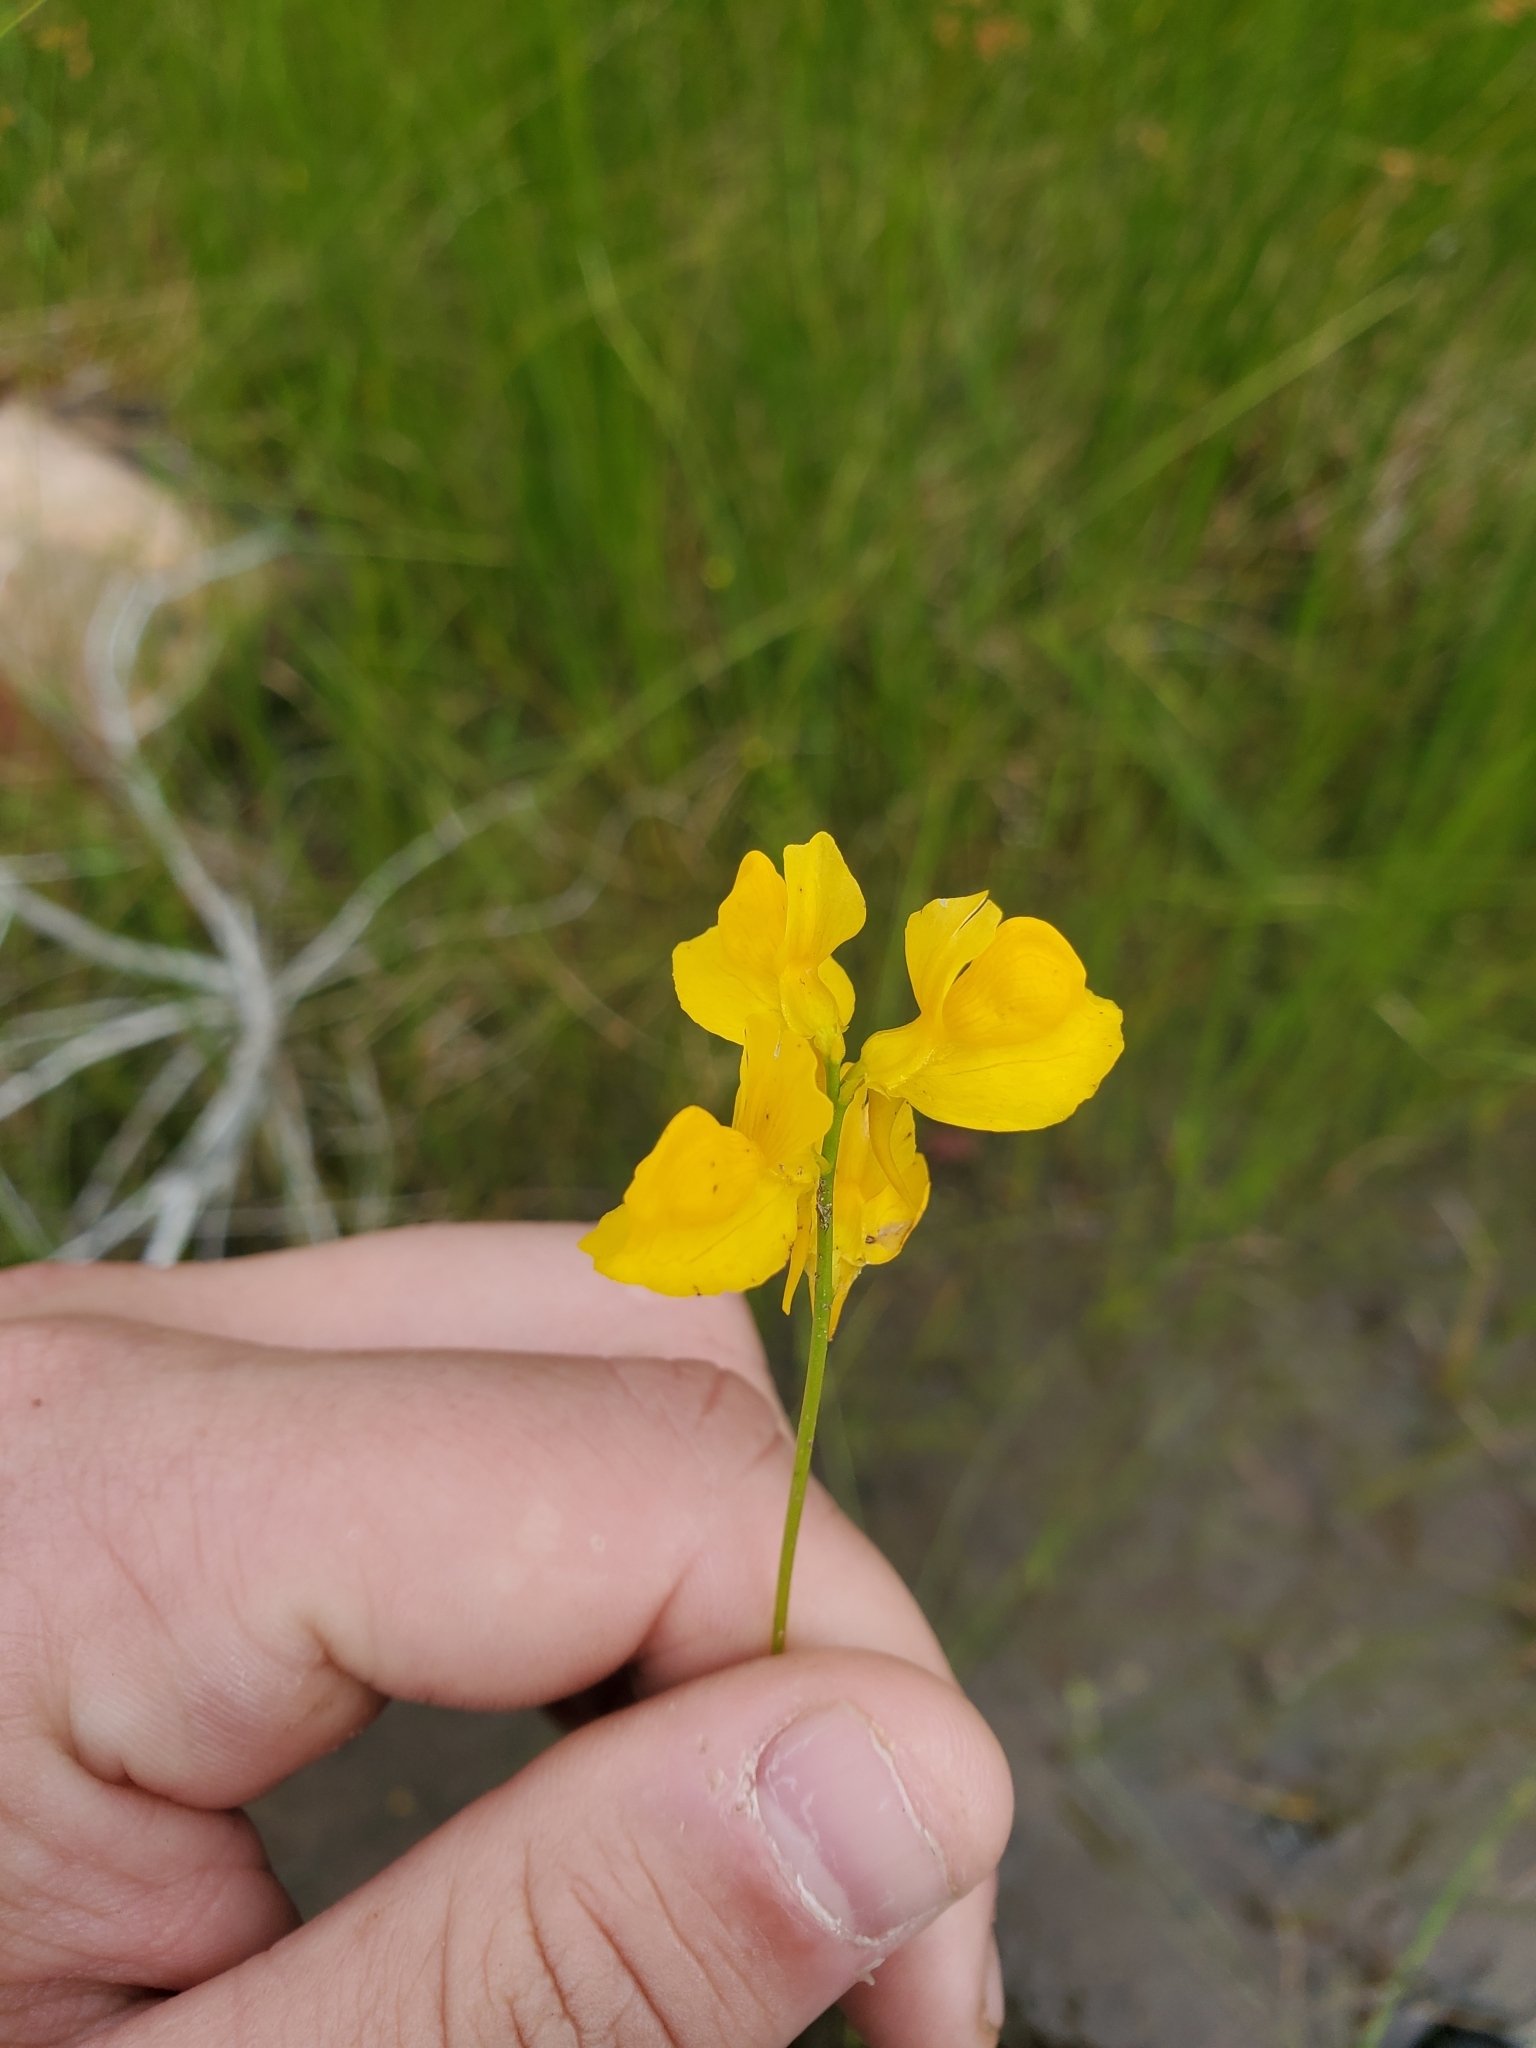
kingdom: Plantae
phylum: Tracheophyta
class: Magnoliopsida
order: Lamiales
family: Lentibulariaceae
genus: Utricularia
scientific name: Utricularia cornuta
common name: Horned bladderwort
